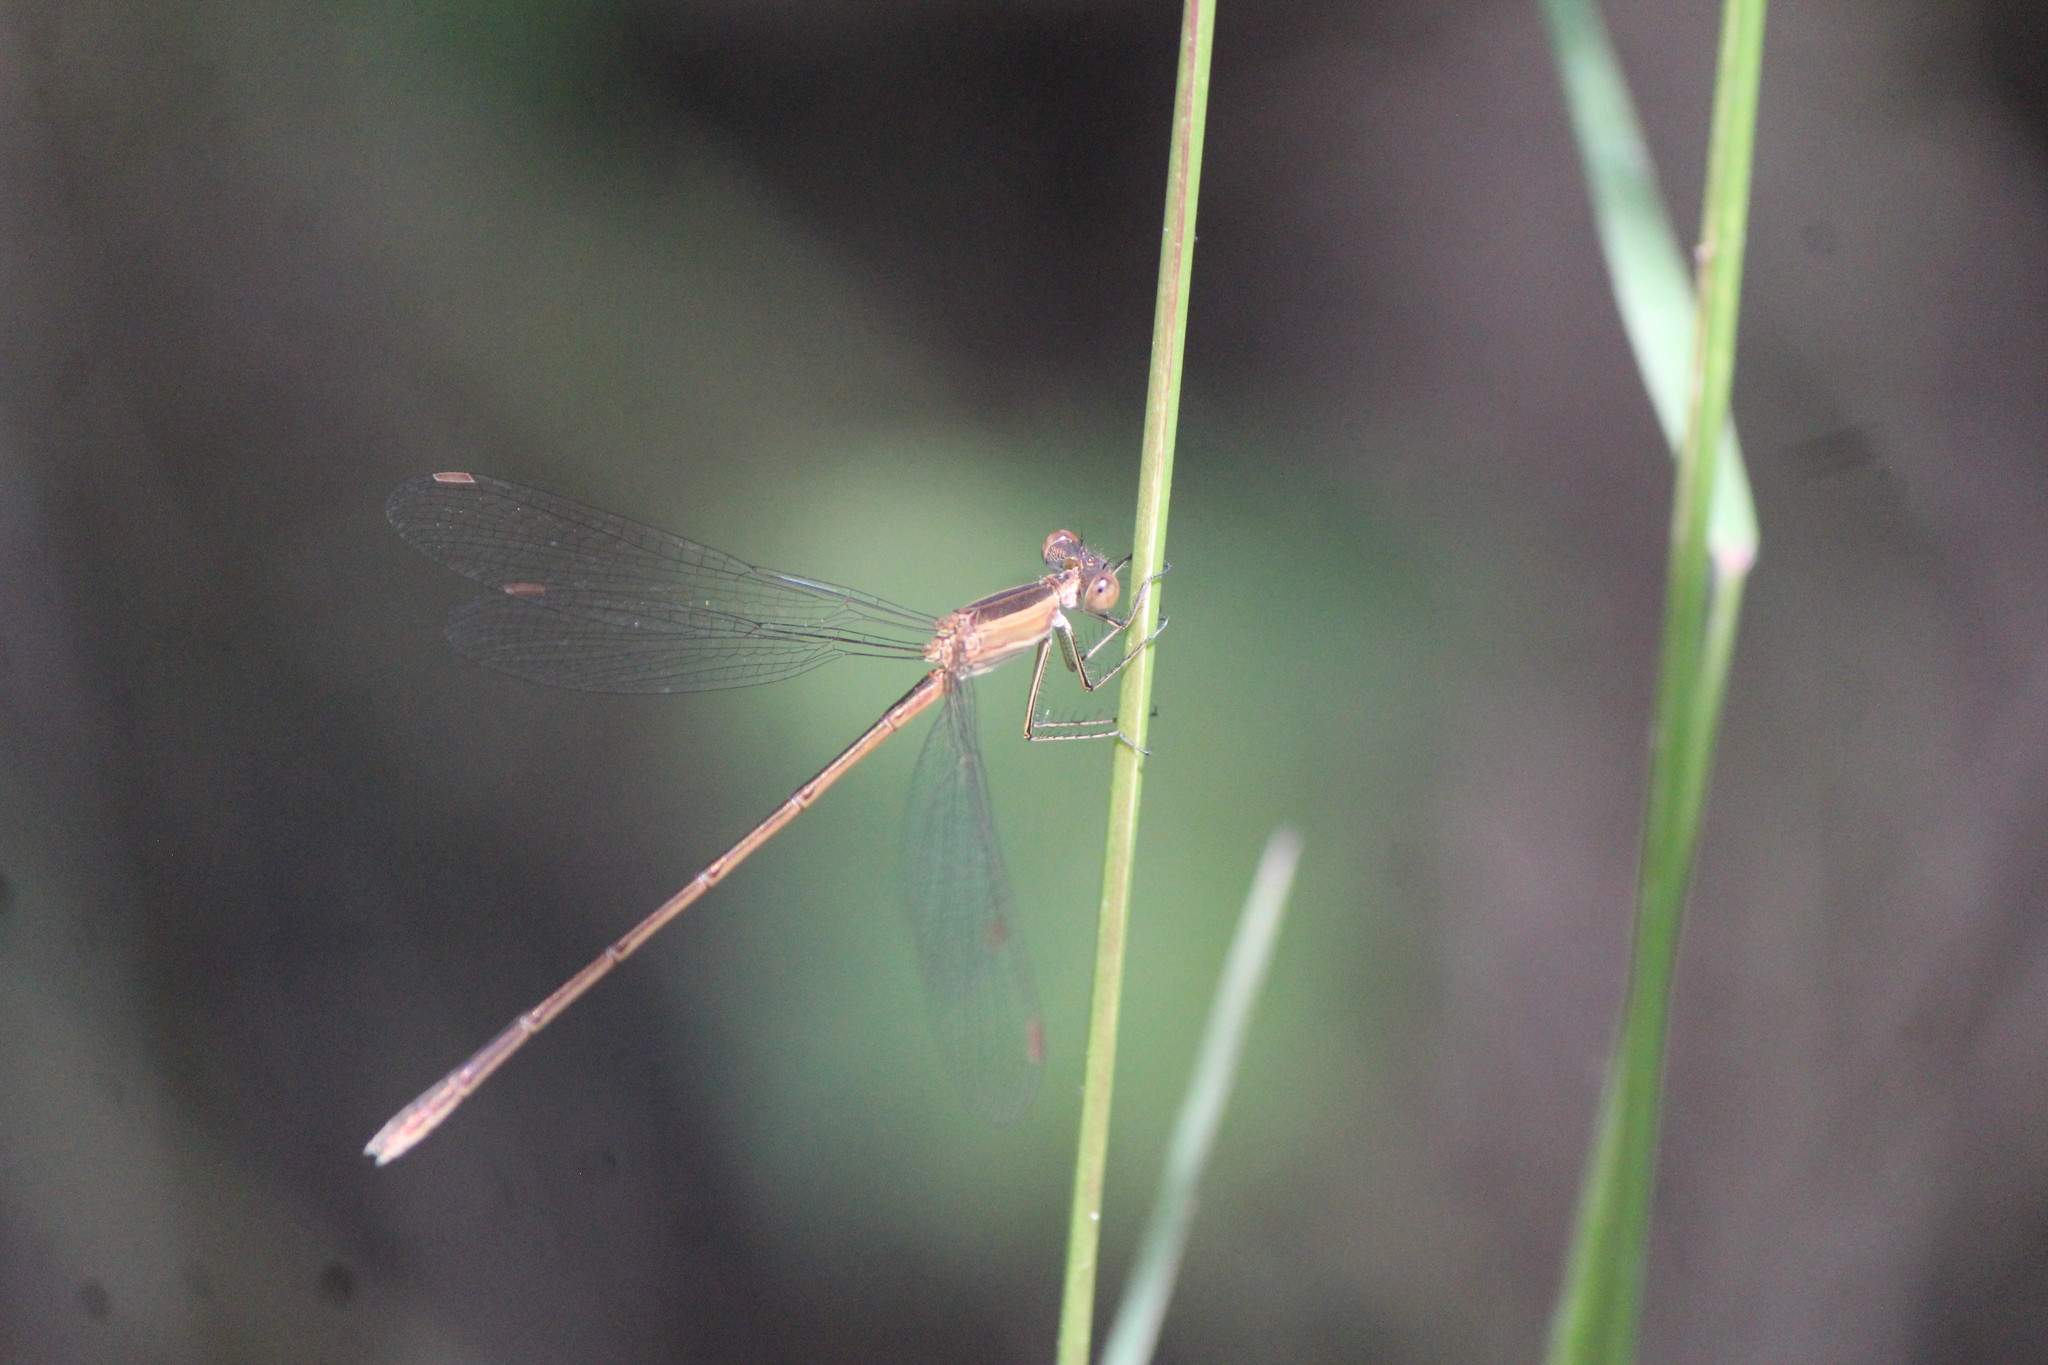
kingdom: Animalia
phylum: Arthropoda
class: Insecta
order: Odonata
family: Lestidae
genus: Lestes
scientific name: Lestes alacer
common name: Plateau spreadwing
